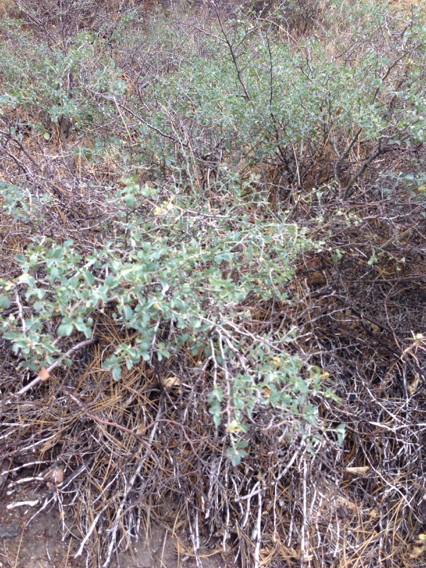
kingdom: Plantae
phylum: Tracheophyta
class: Magnoliopsida
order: Rosales
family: Rhamnaceae
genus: Ceanothus
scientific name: Ceanothus cordulatus
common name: Mountain whitethorn
